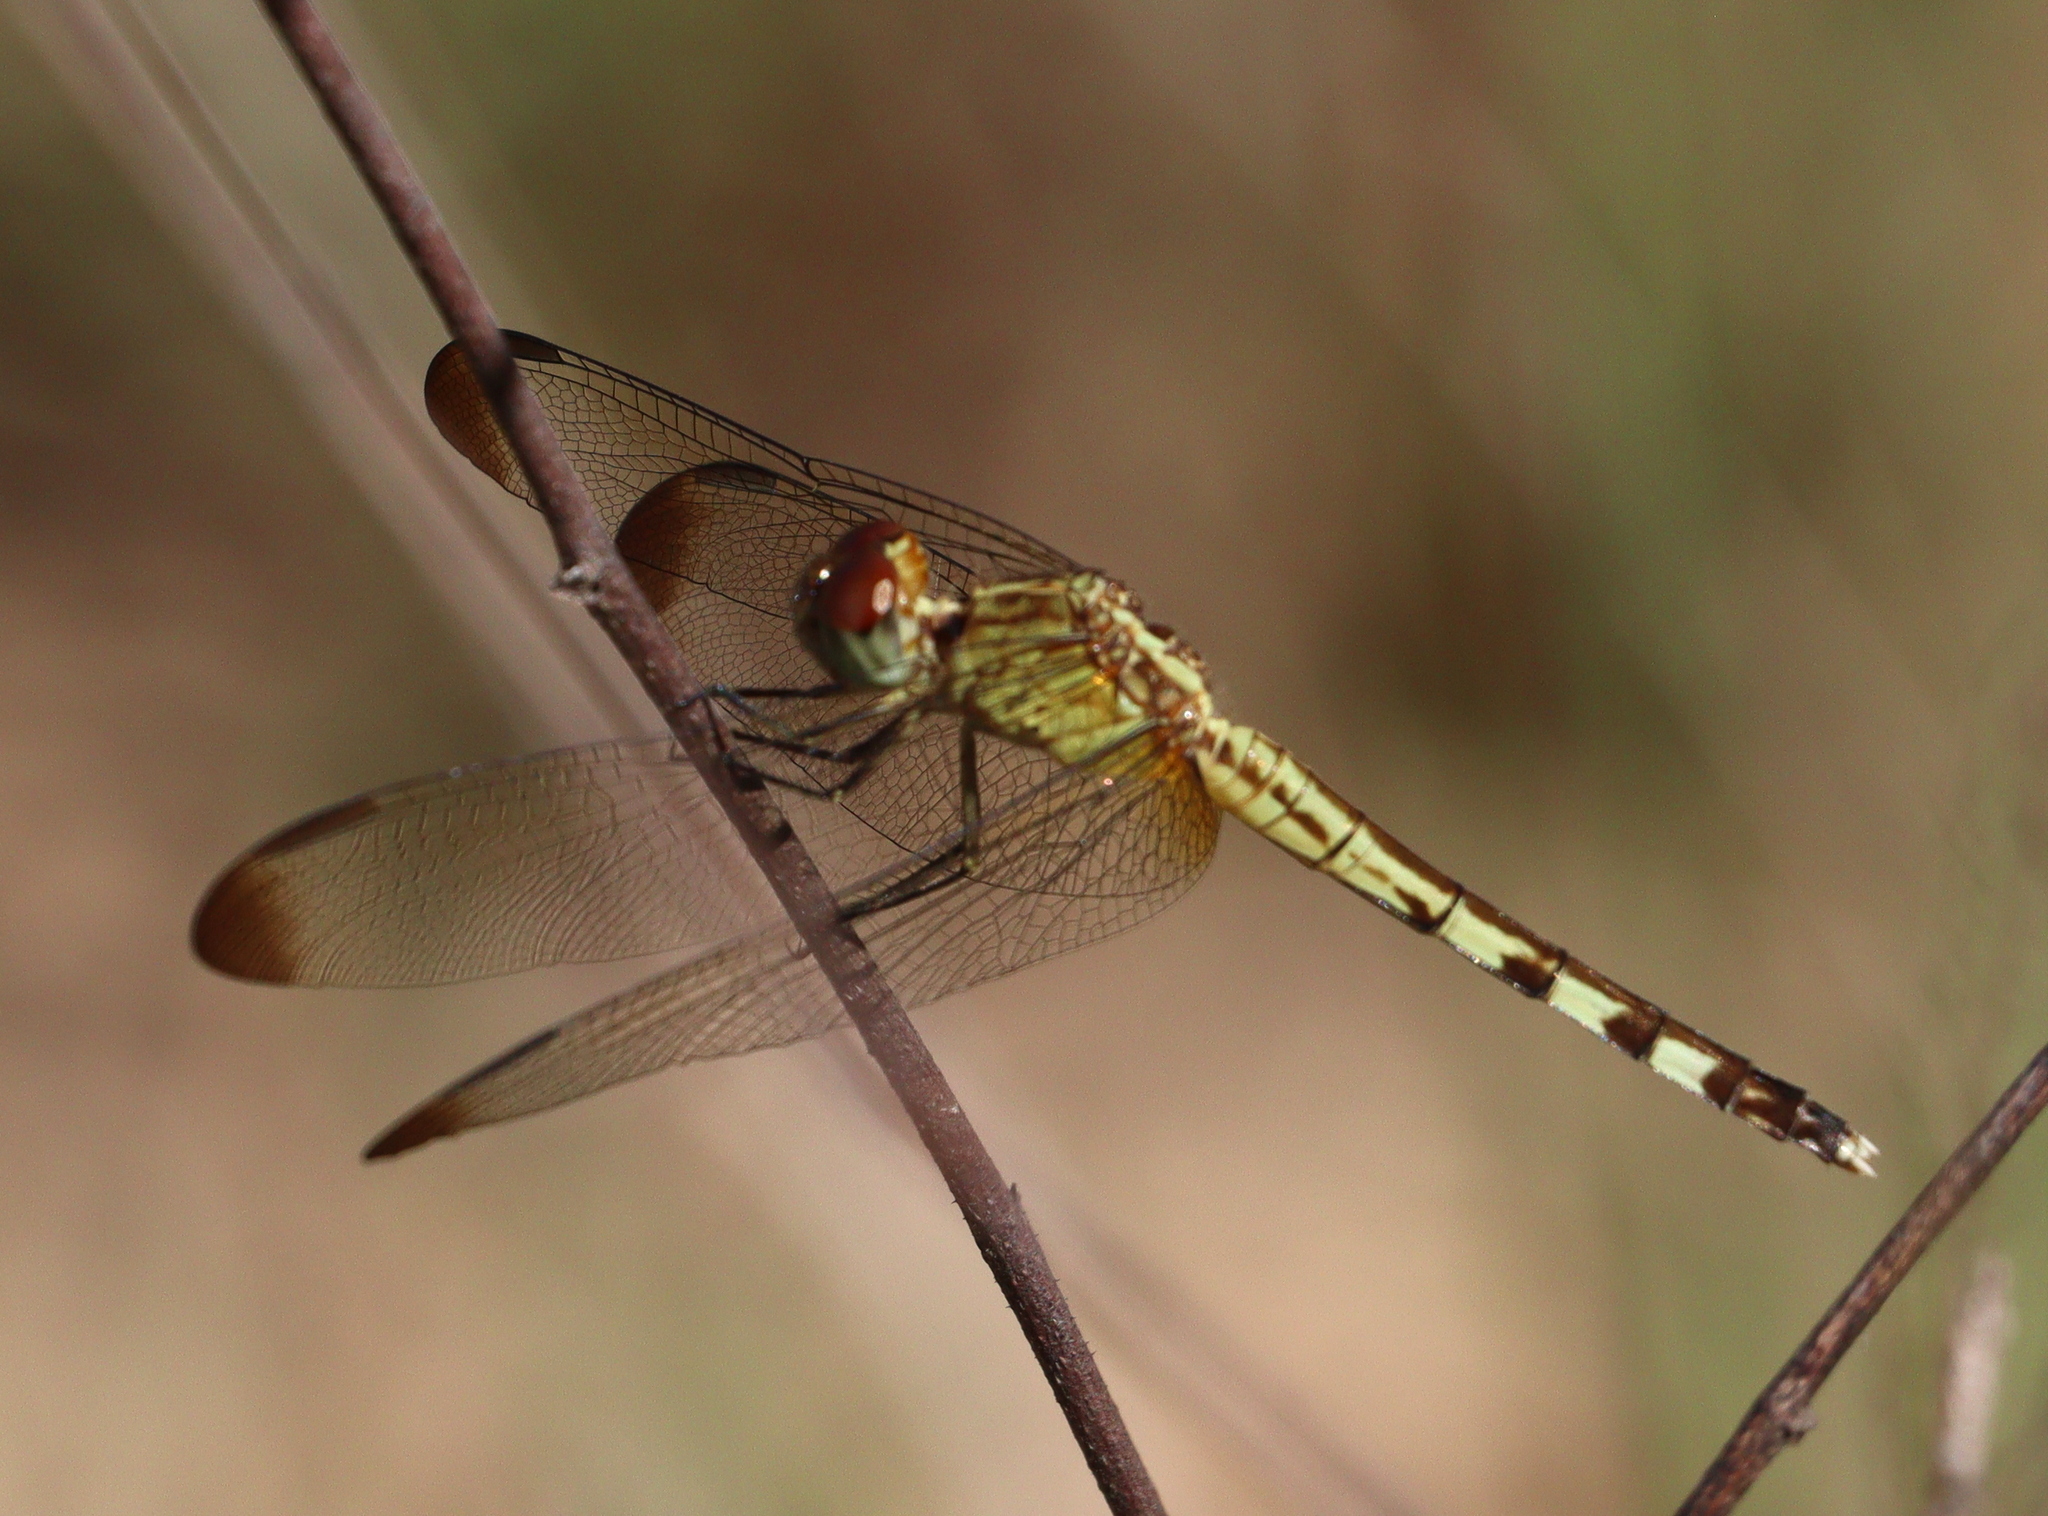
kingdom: Animalia
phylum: Arthropoda
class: Insecta
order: Odonata
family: Libellulidae
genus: Erythrodiplax
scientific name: Erythrodiplax umbrata
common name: Band-winged dragonlet
